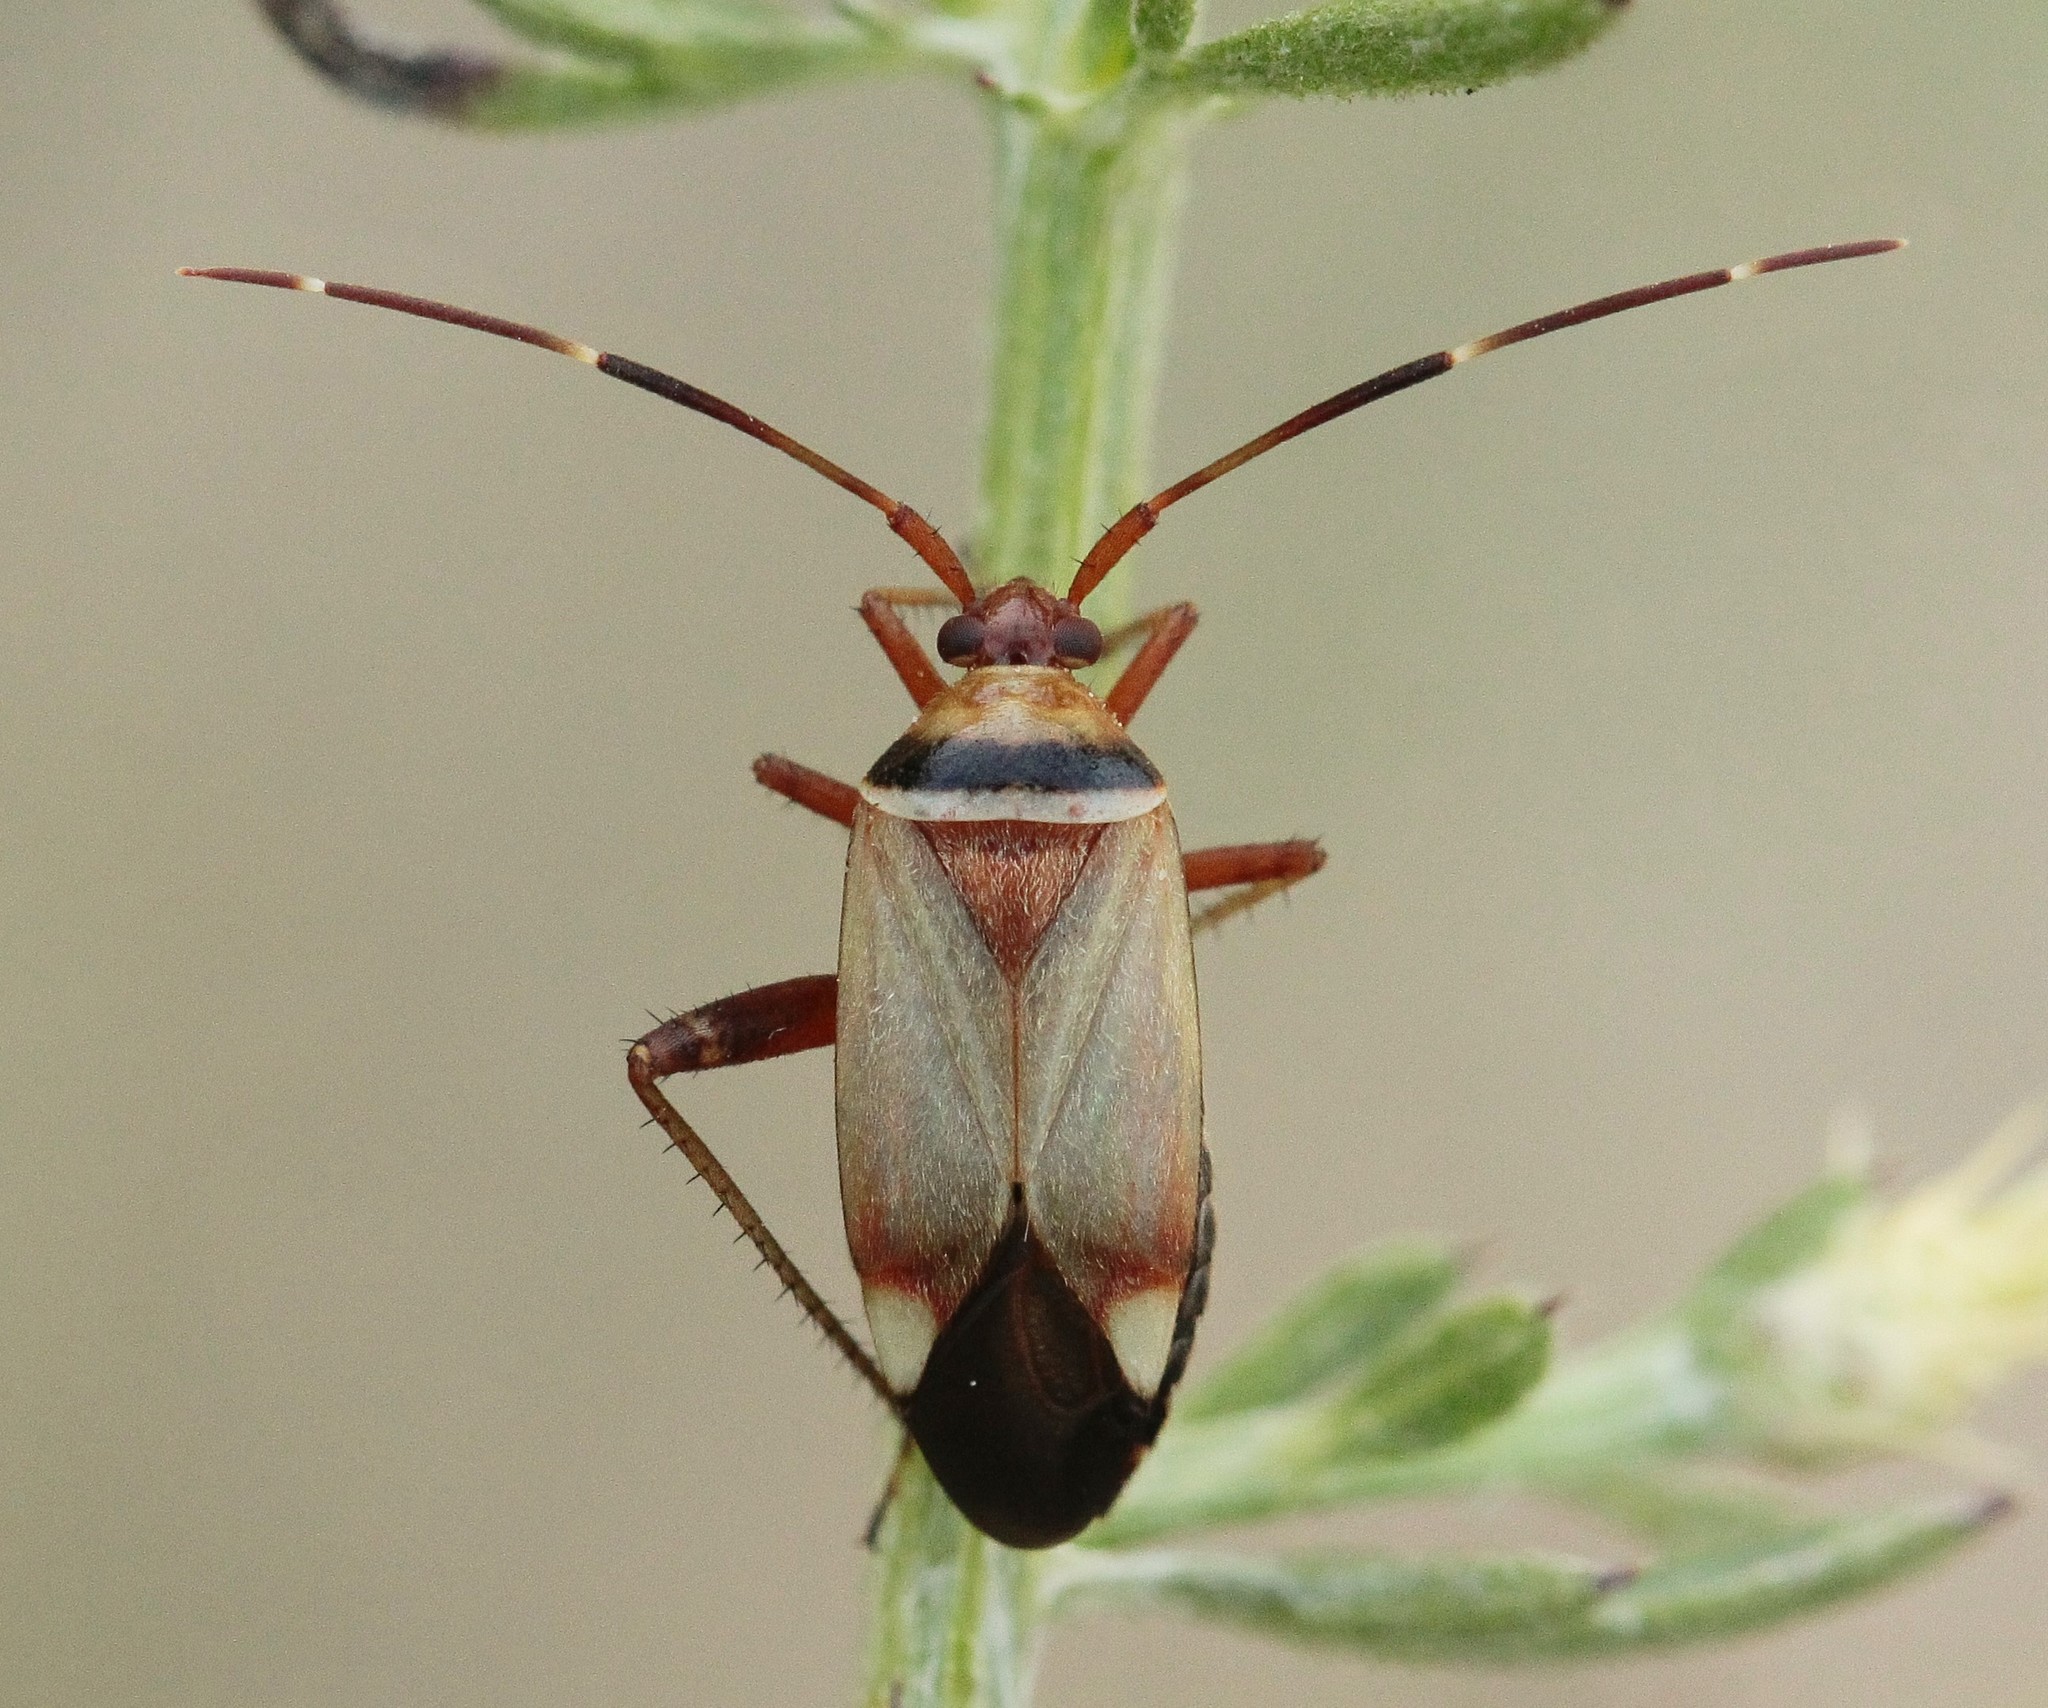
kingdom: Animalia
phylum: Arthropoda
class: Insecta
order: Hemiptera
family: Miridae
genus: Adelphocoris
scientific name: Adelphocoris vandalicus
